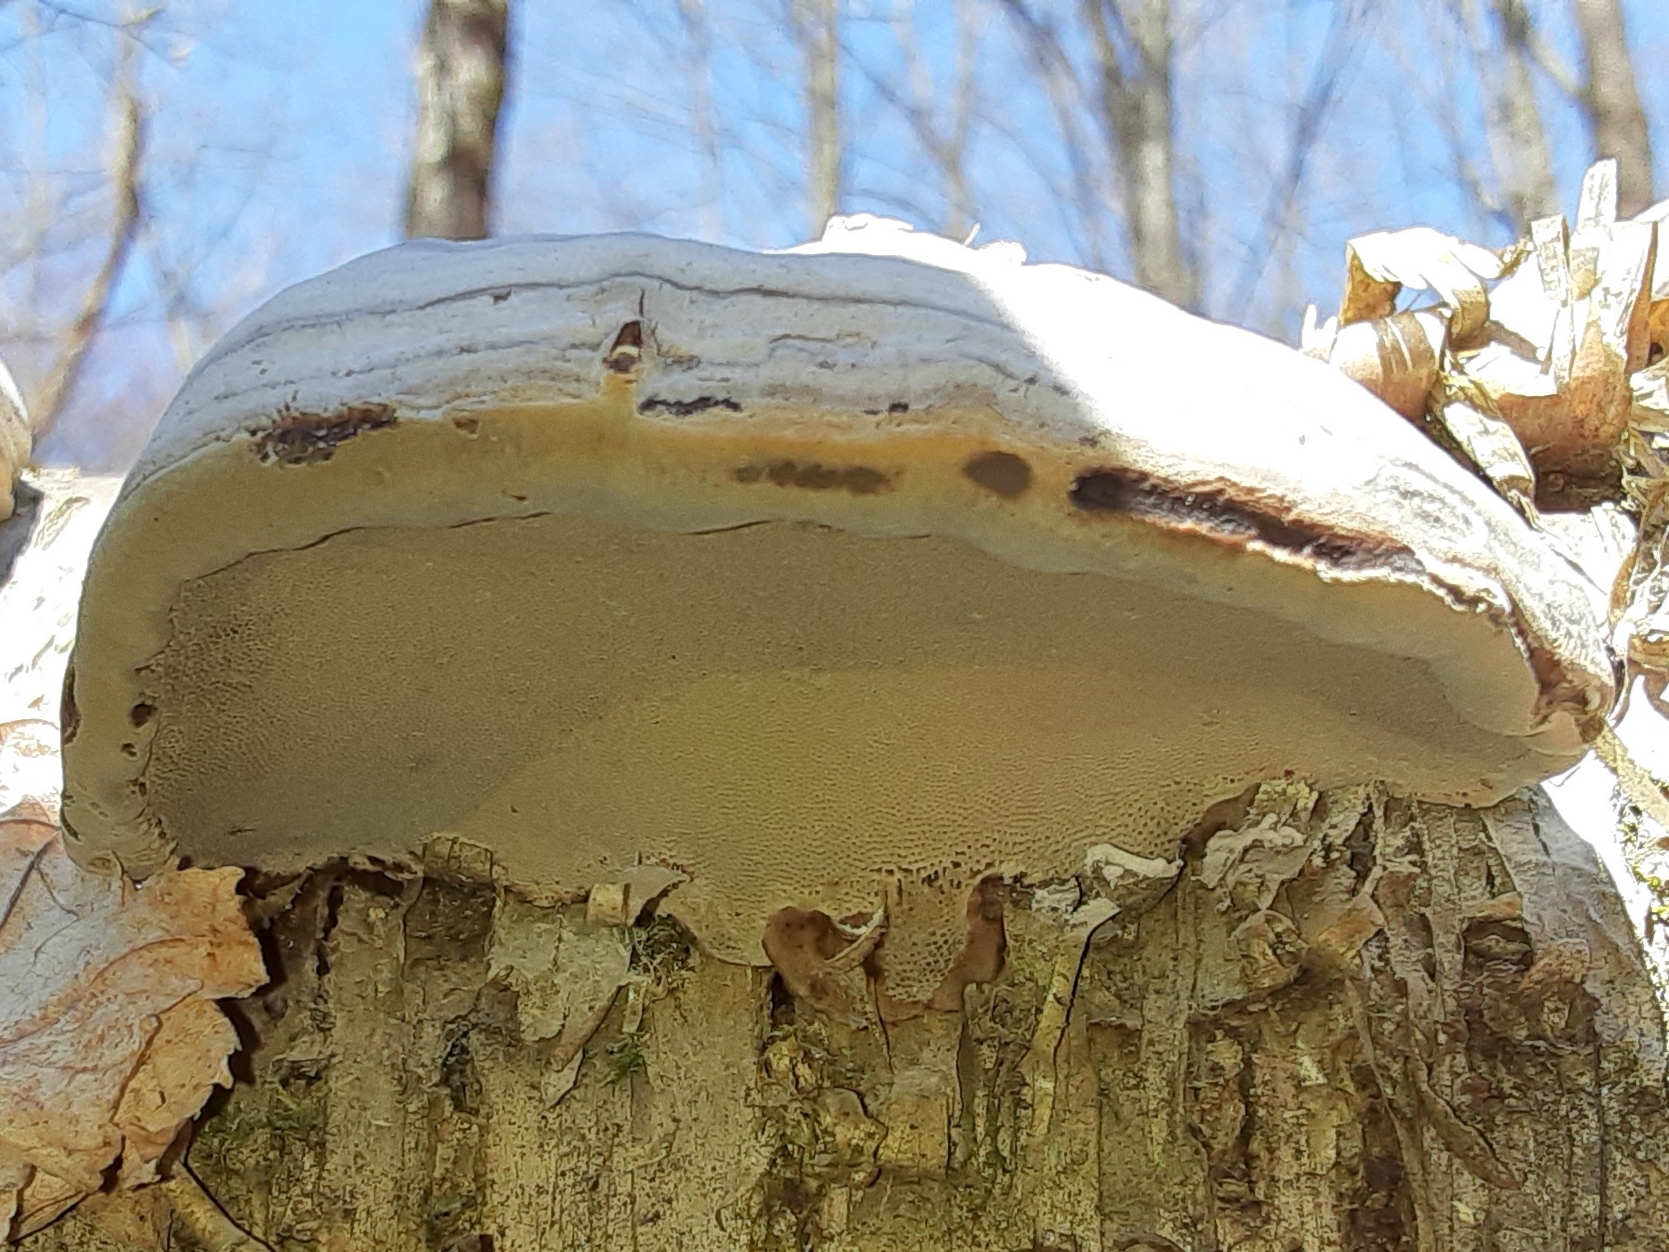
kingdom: Fungi
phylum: Basidiomycota
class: Agaricomycetes
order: Polyporales
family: Polyporaceae
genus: Fomes
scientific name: Fomes fomentarius
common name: Hoof fungus
